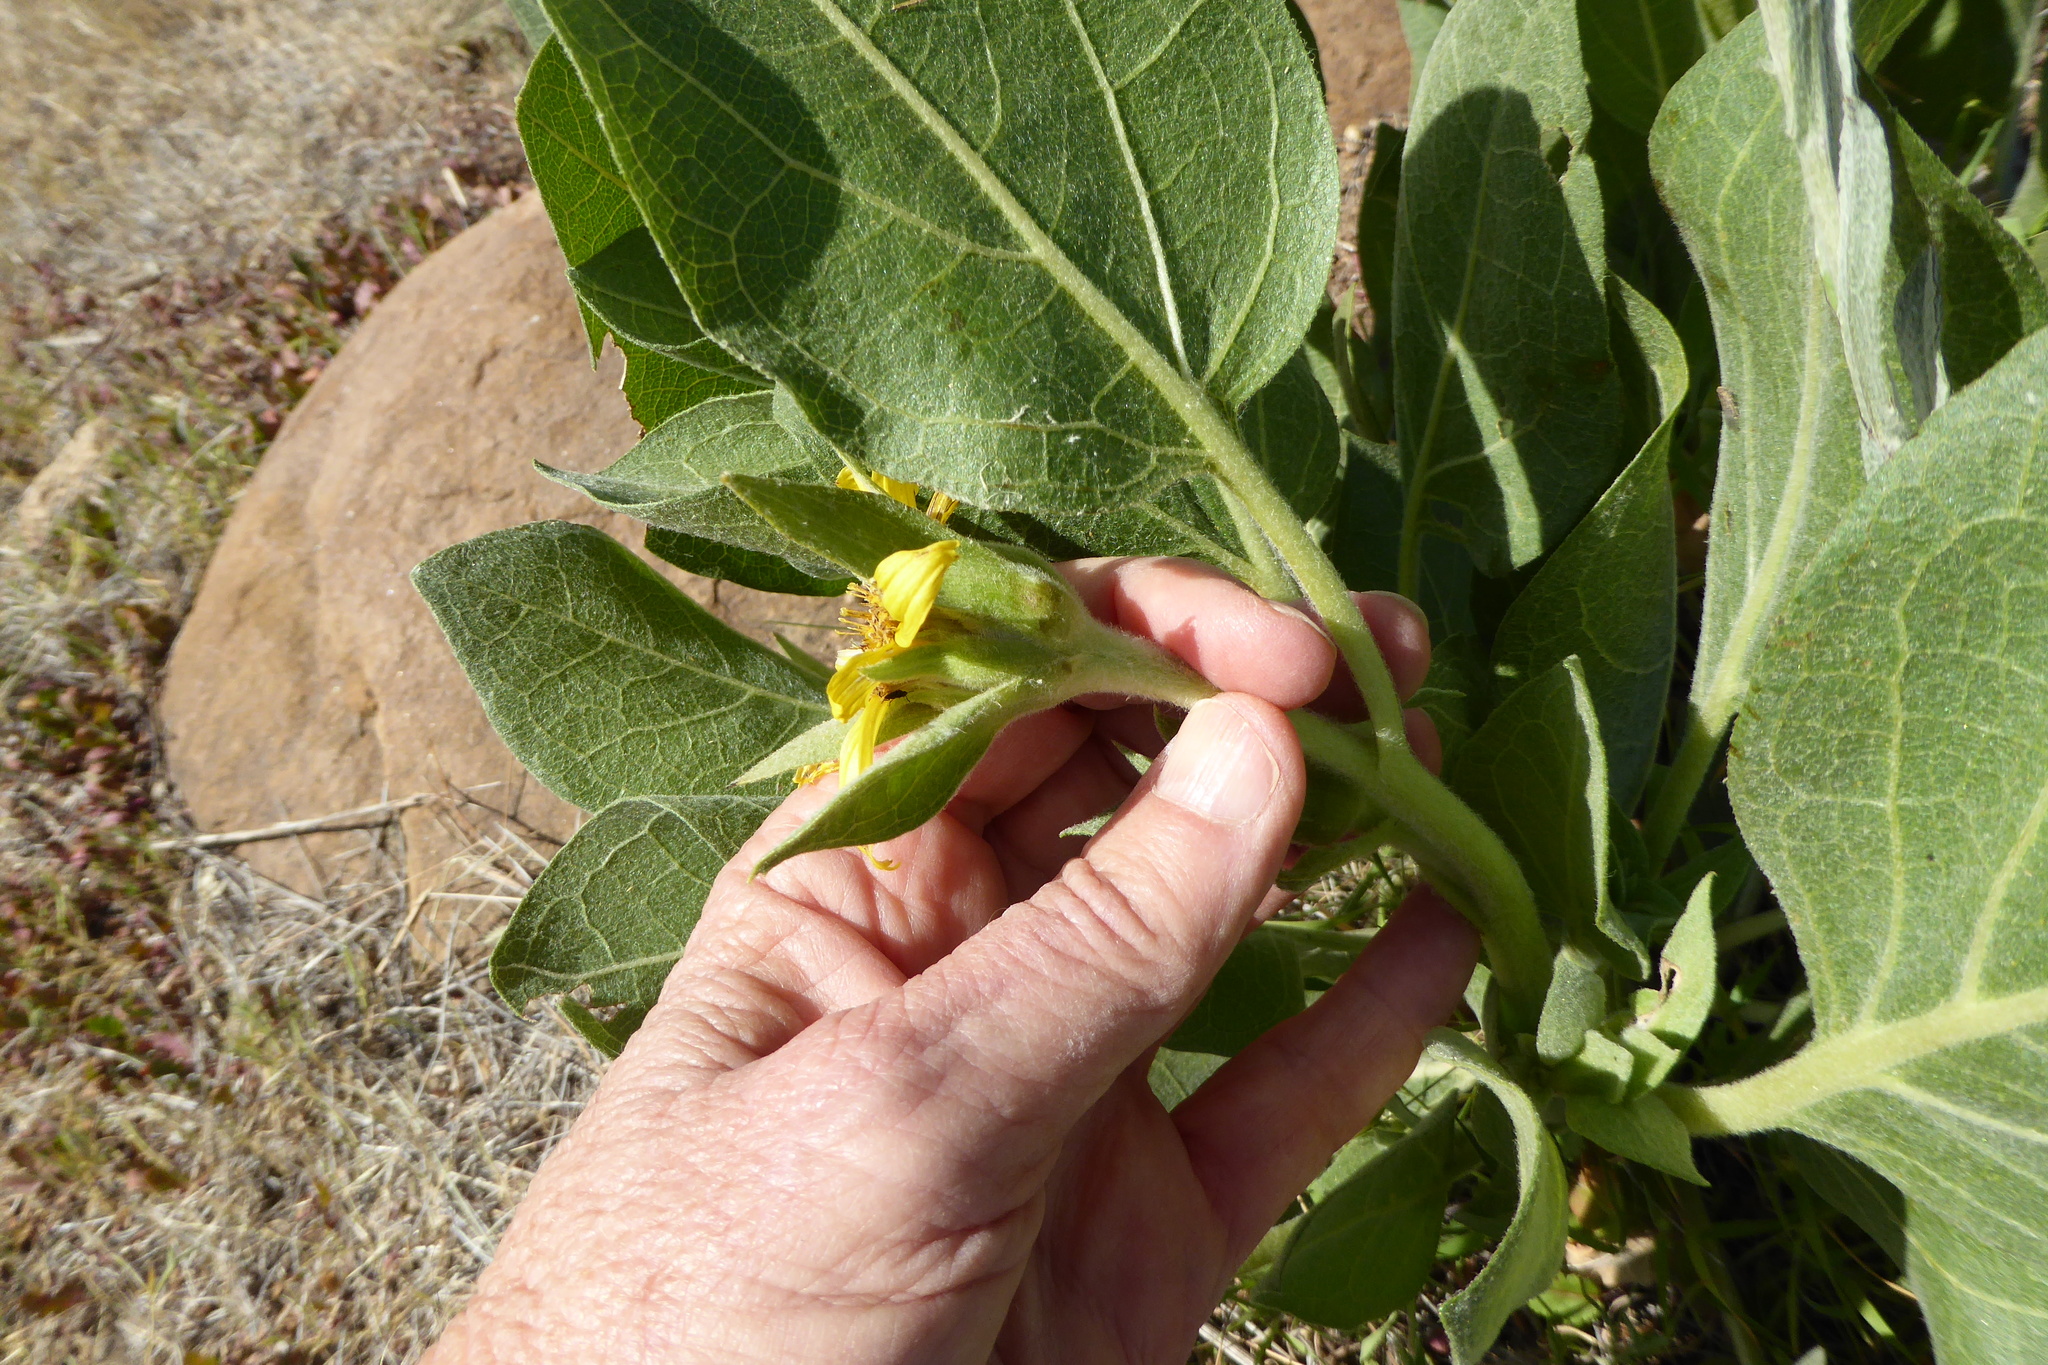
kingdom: Plantae
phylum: Tracheophyta
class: Magnoliopsida
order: Asterales
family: Asteraceae
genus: Agnorhiza
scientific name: Agnorhiza ovata
